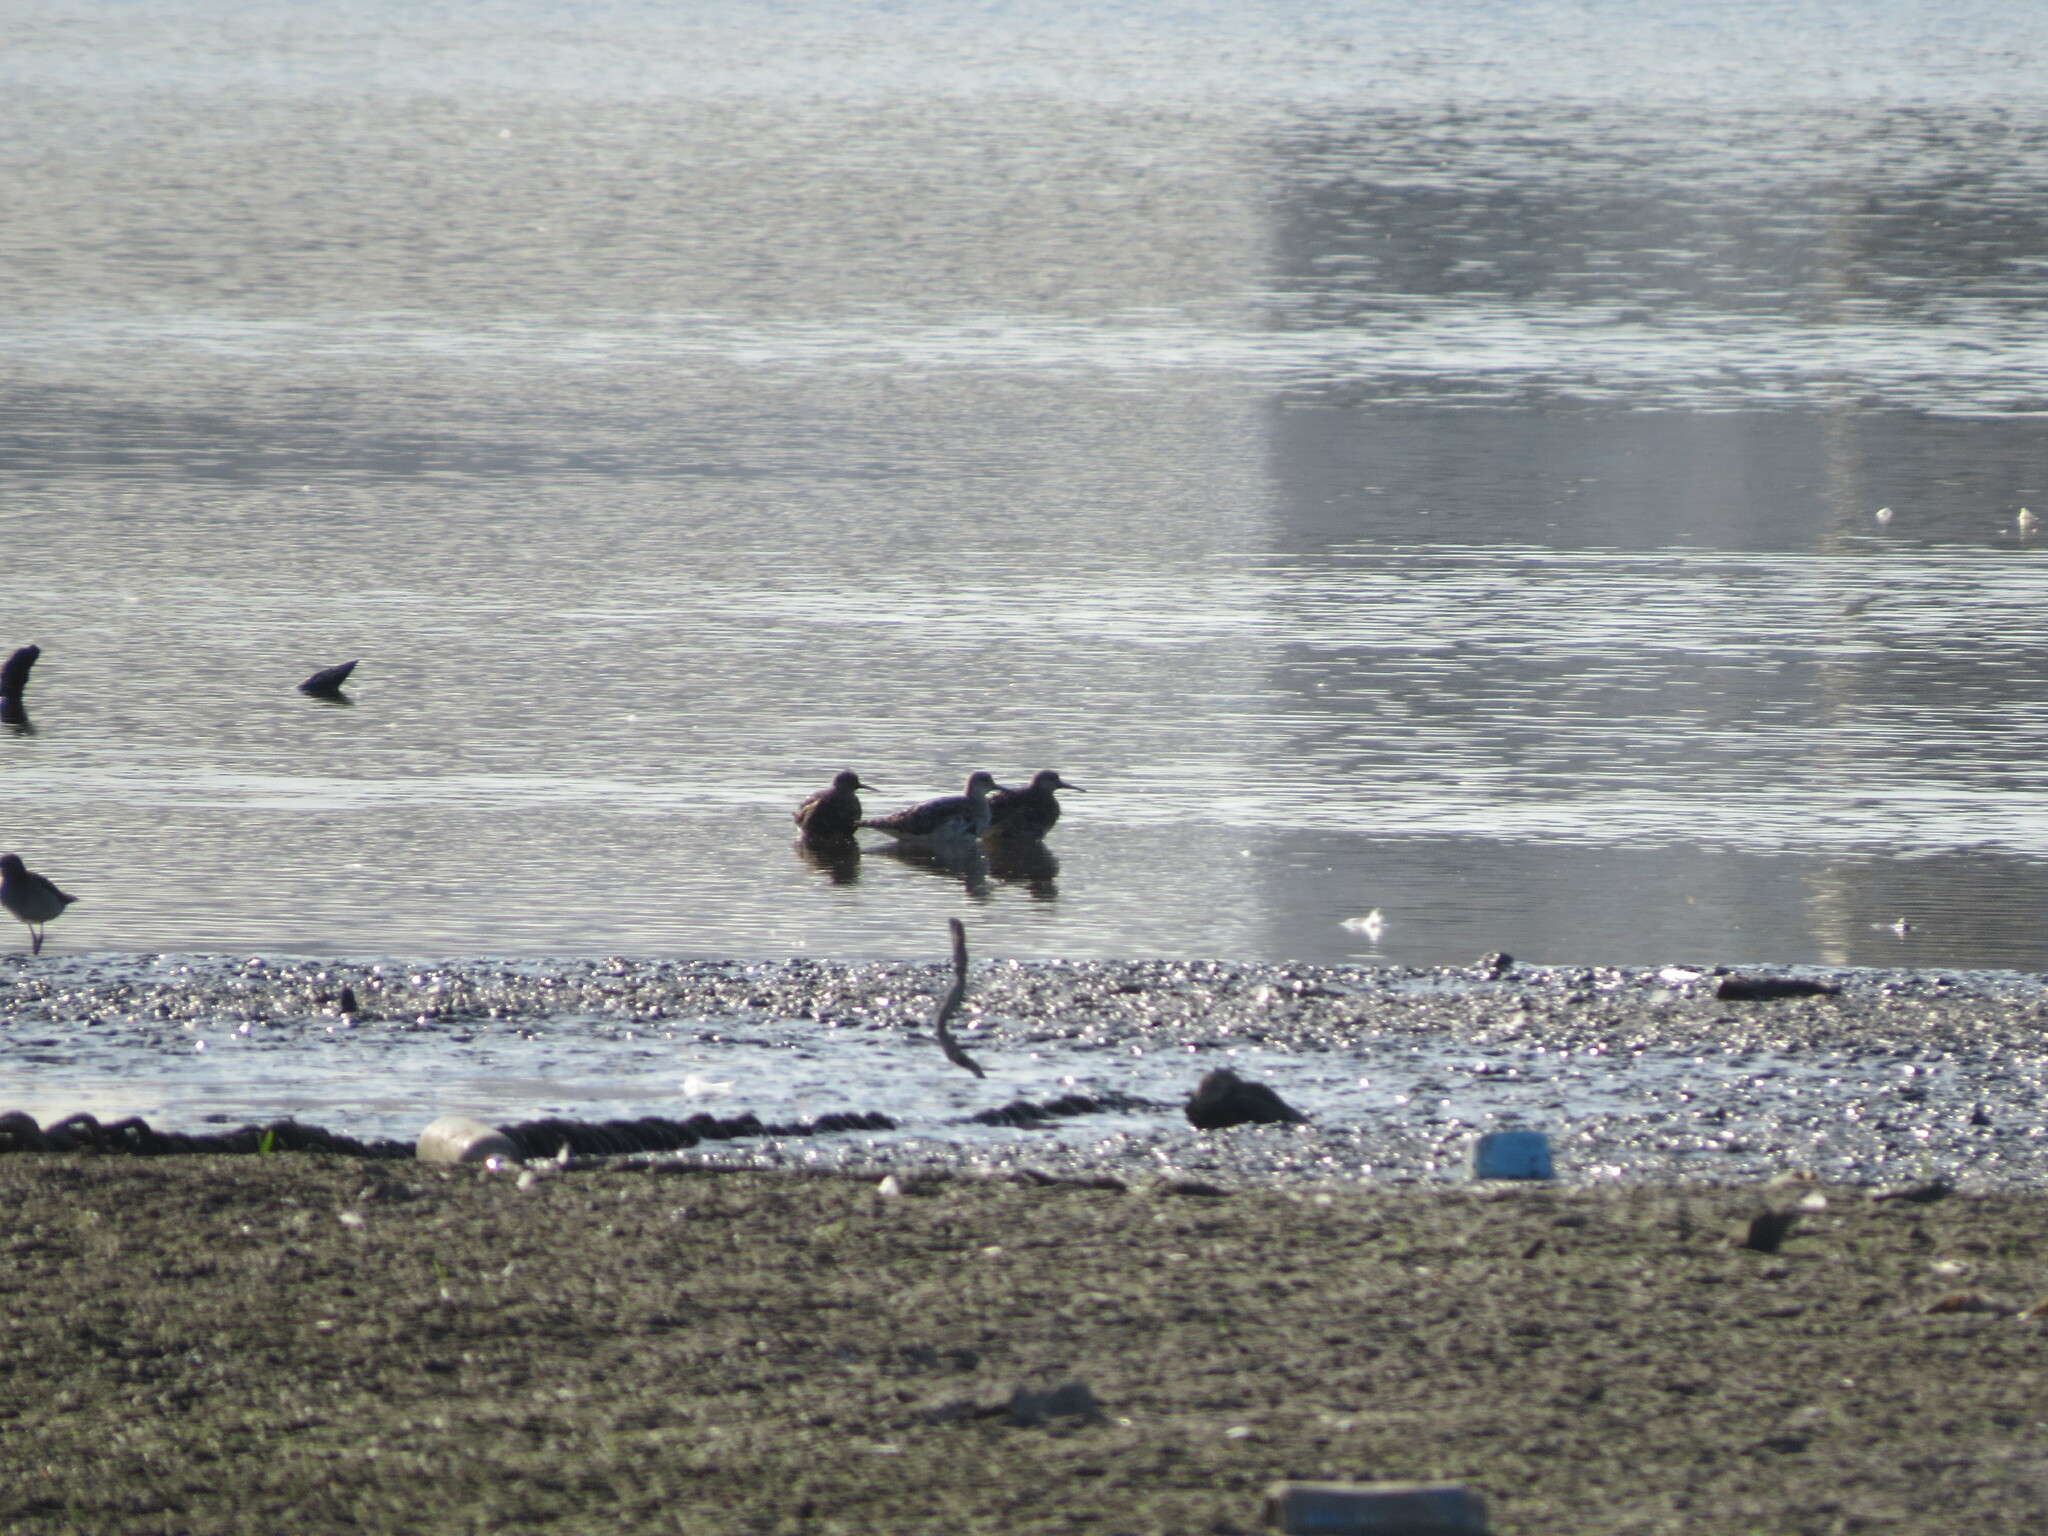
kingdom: Animalia
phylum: Chordata
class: Aves
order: Charadriiformes
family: Scolopacidae
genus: Calidris
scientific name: Calidris pugnax
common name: Ruff
